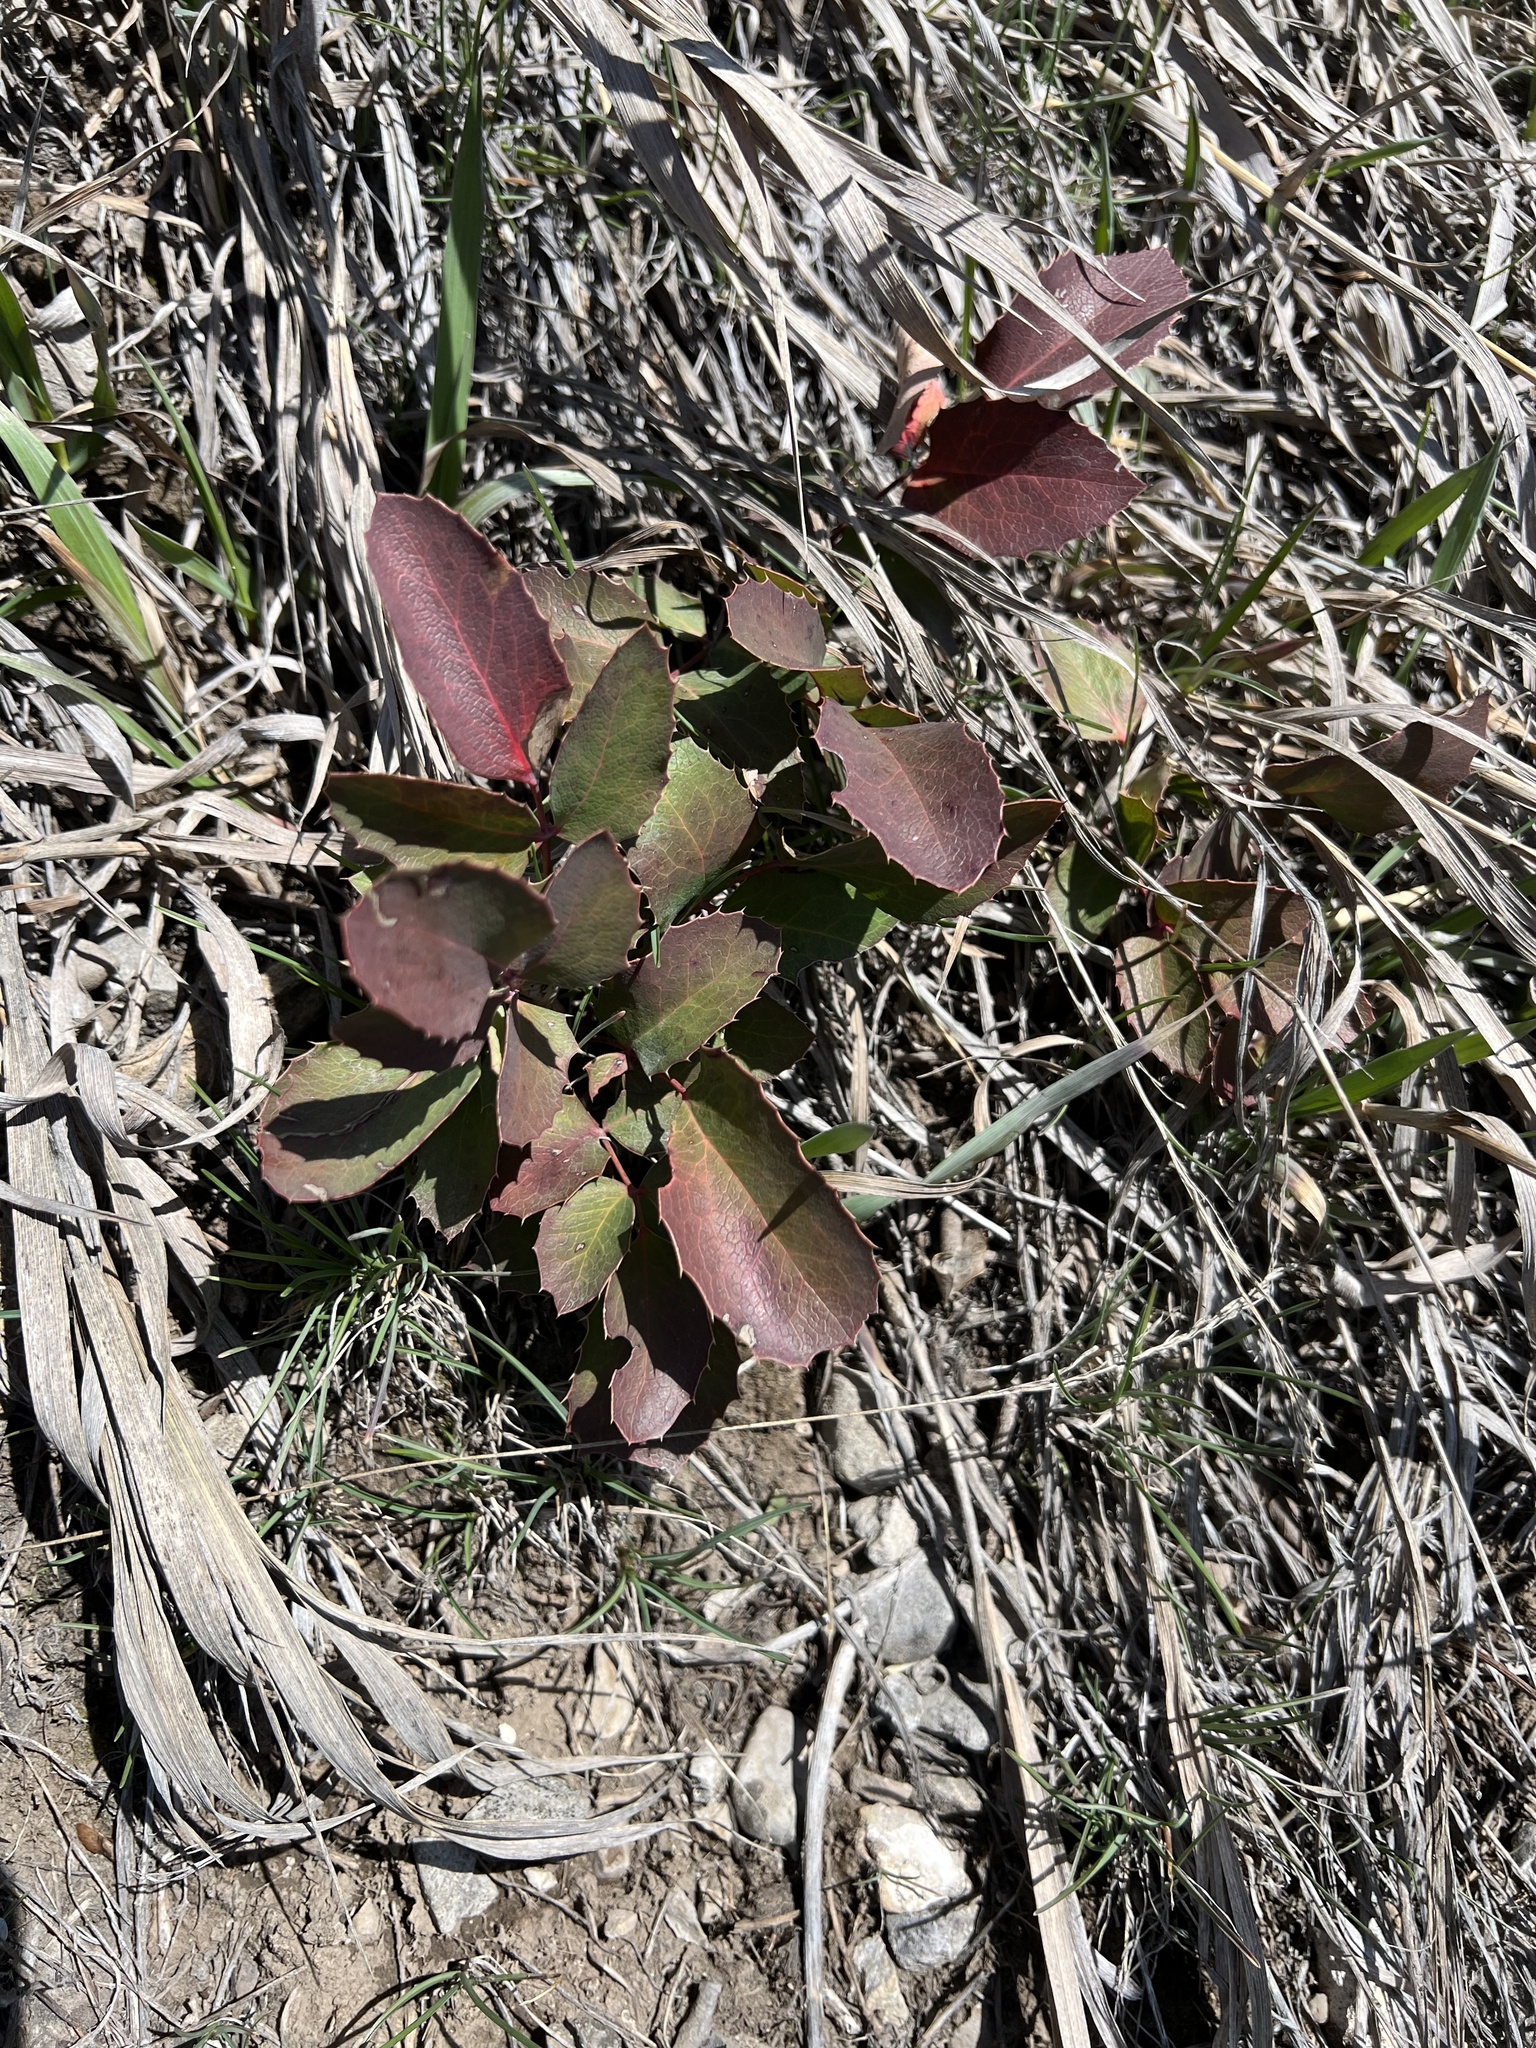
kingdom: Plantae
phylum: Tracheophyta
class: Magnoliopsida
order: Ranunculales
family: Berberidaceae
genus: Mahonia
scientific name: Mahonia repens
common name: Creeping oregon-grape
